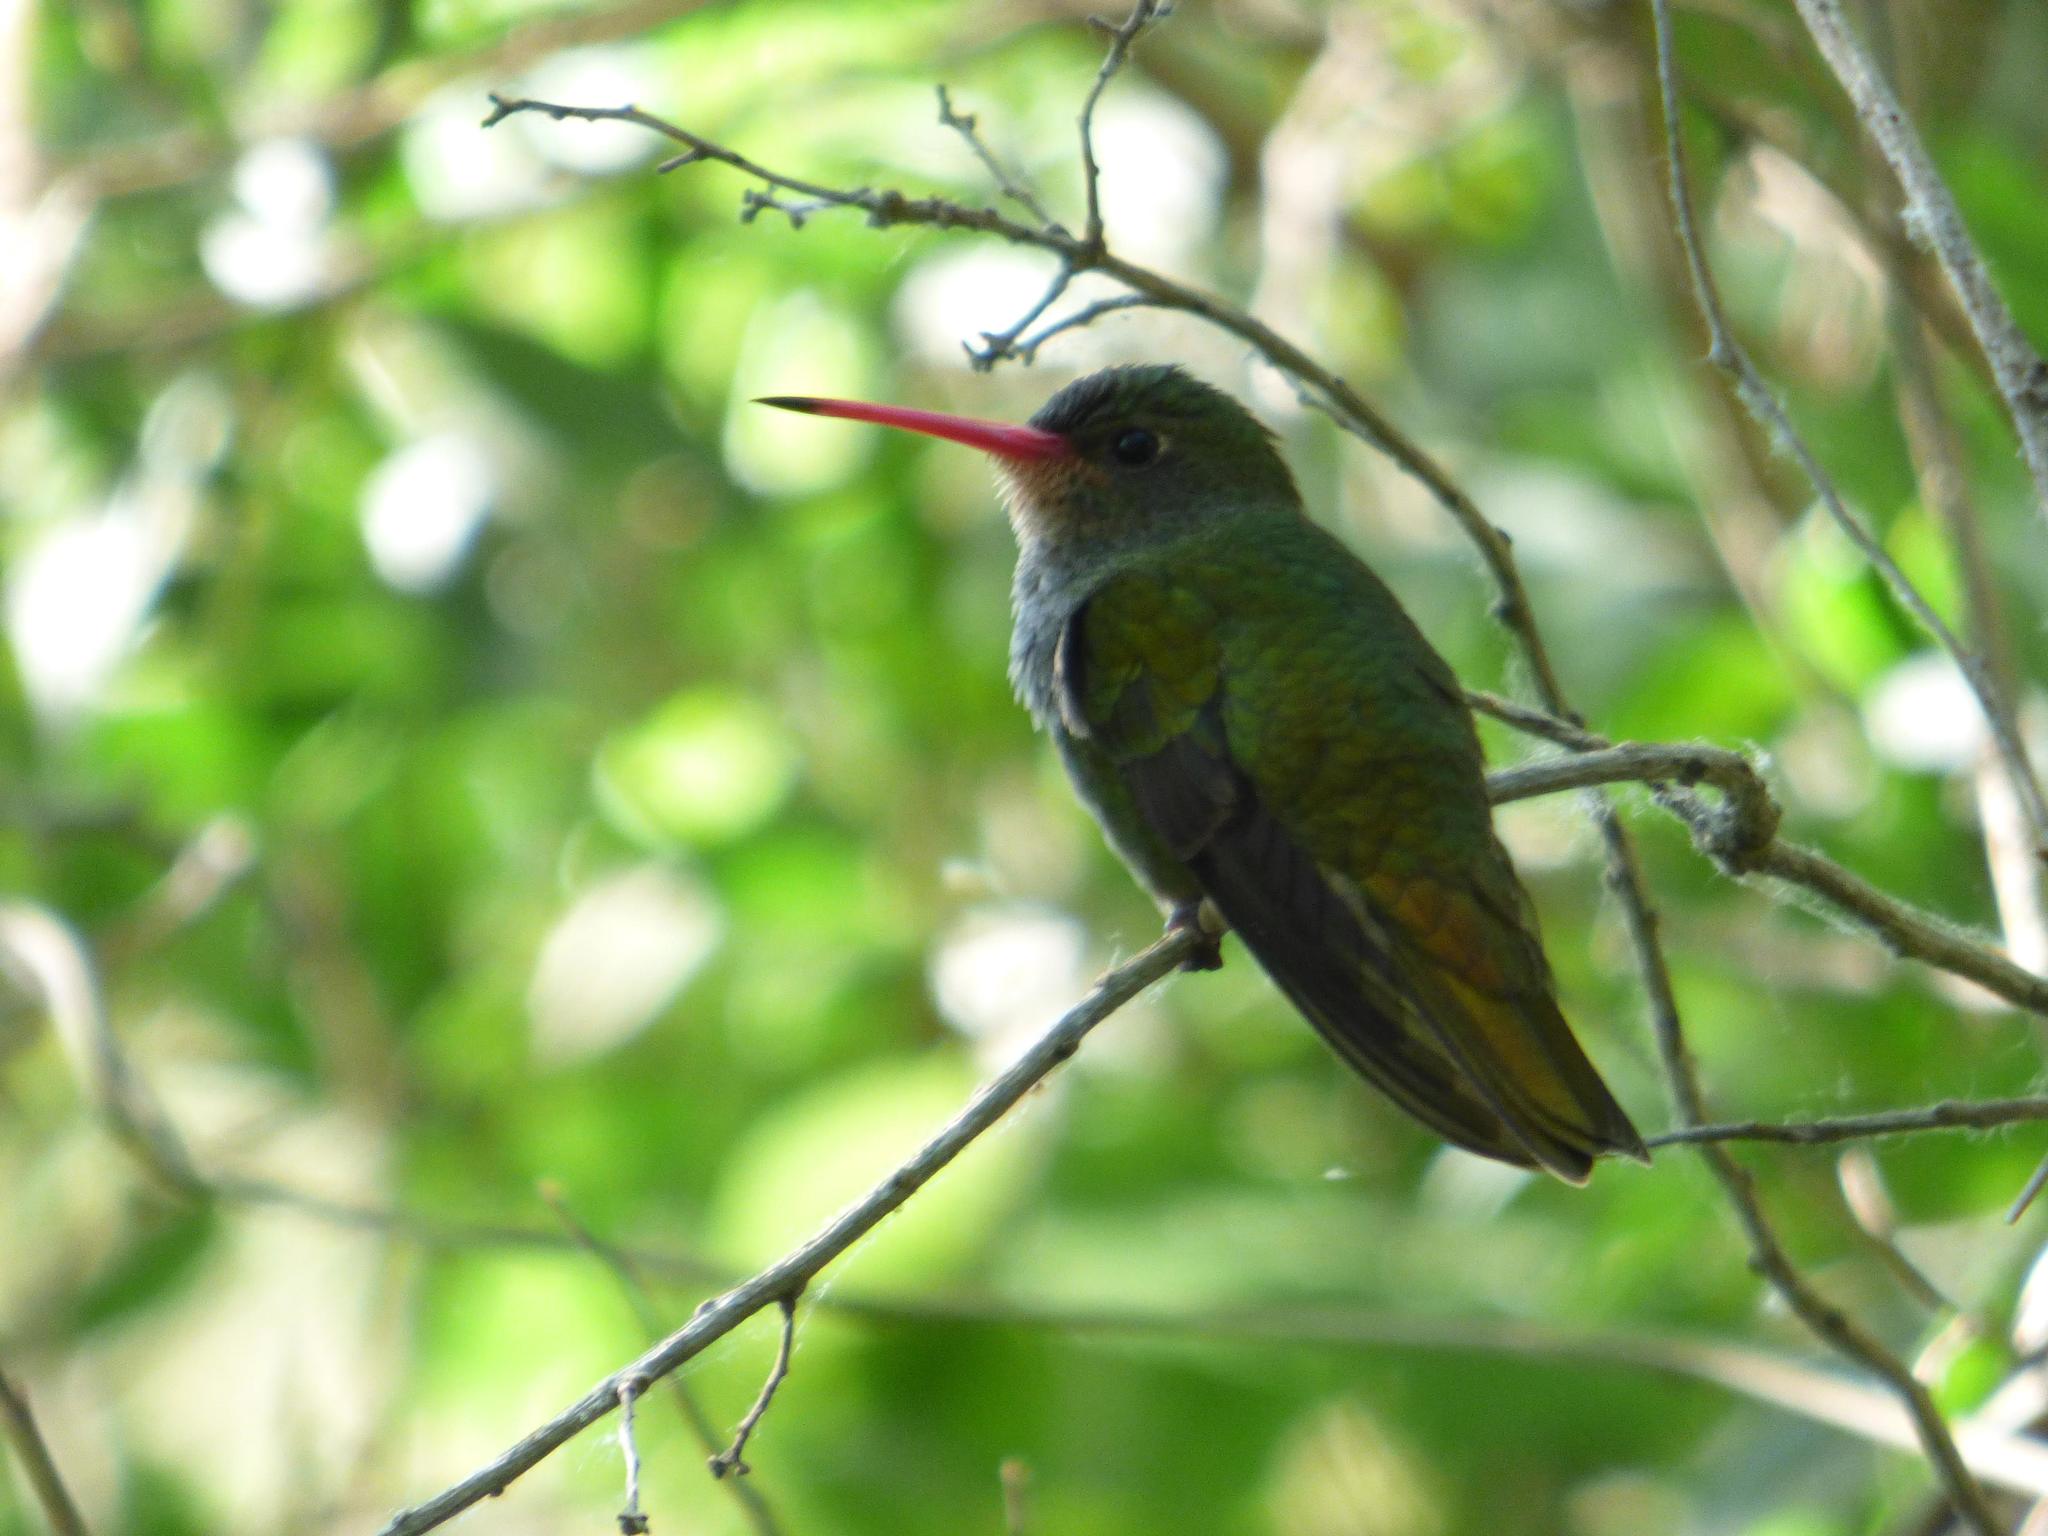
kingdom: Animalia
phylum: Chordata
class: Aves
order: Apodiformes
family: Trochilidae
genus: Hylocharis
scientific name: Hylocharis chrysura
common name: Gilded sapphire
